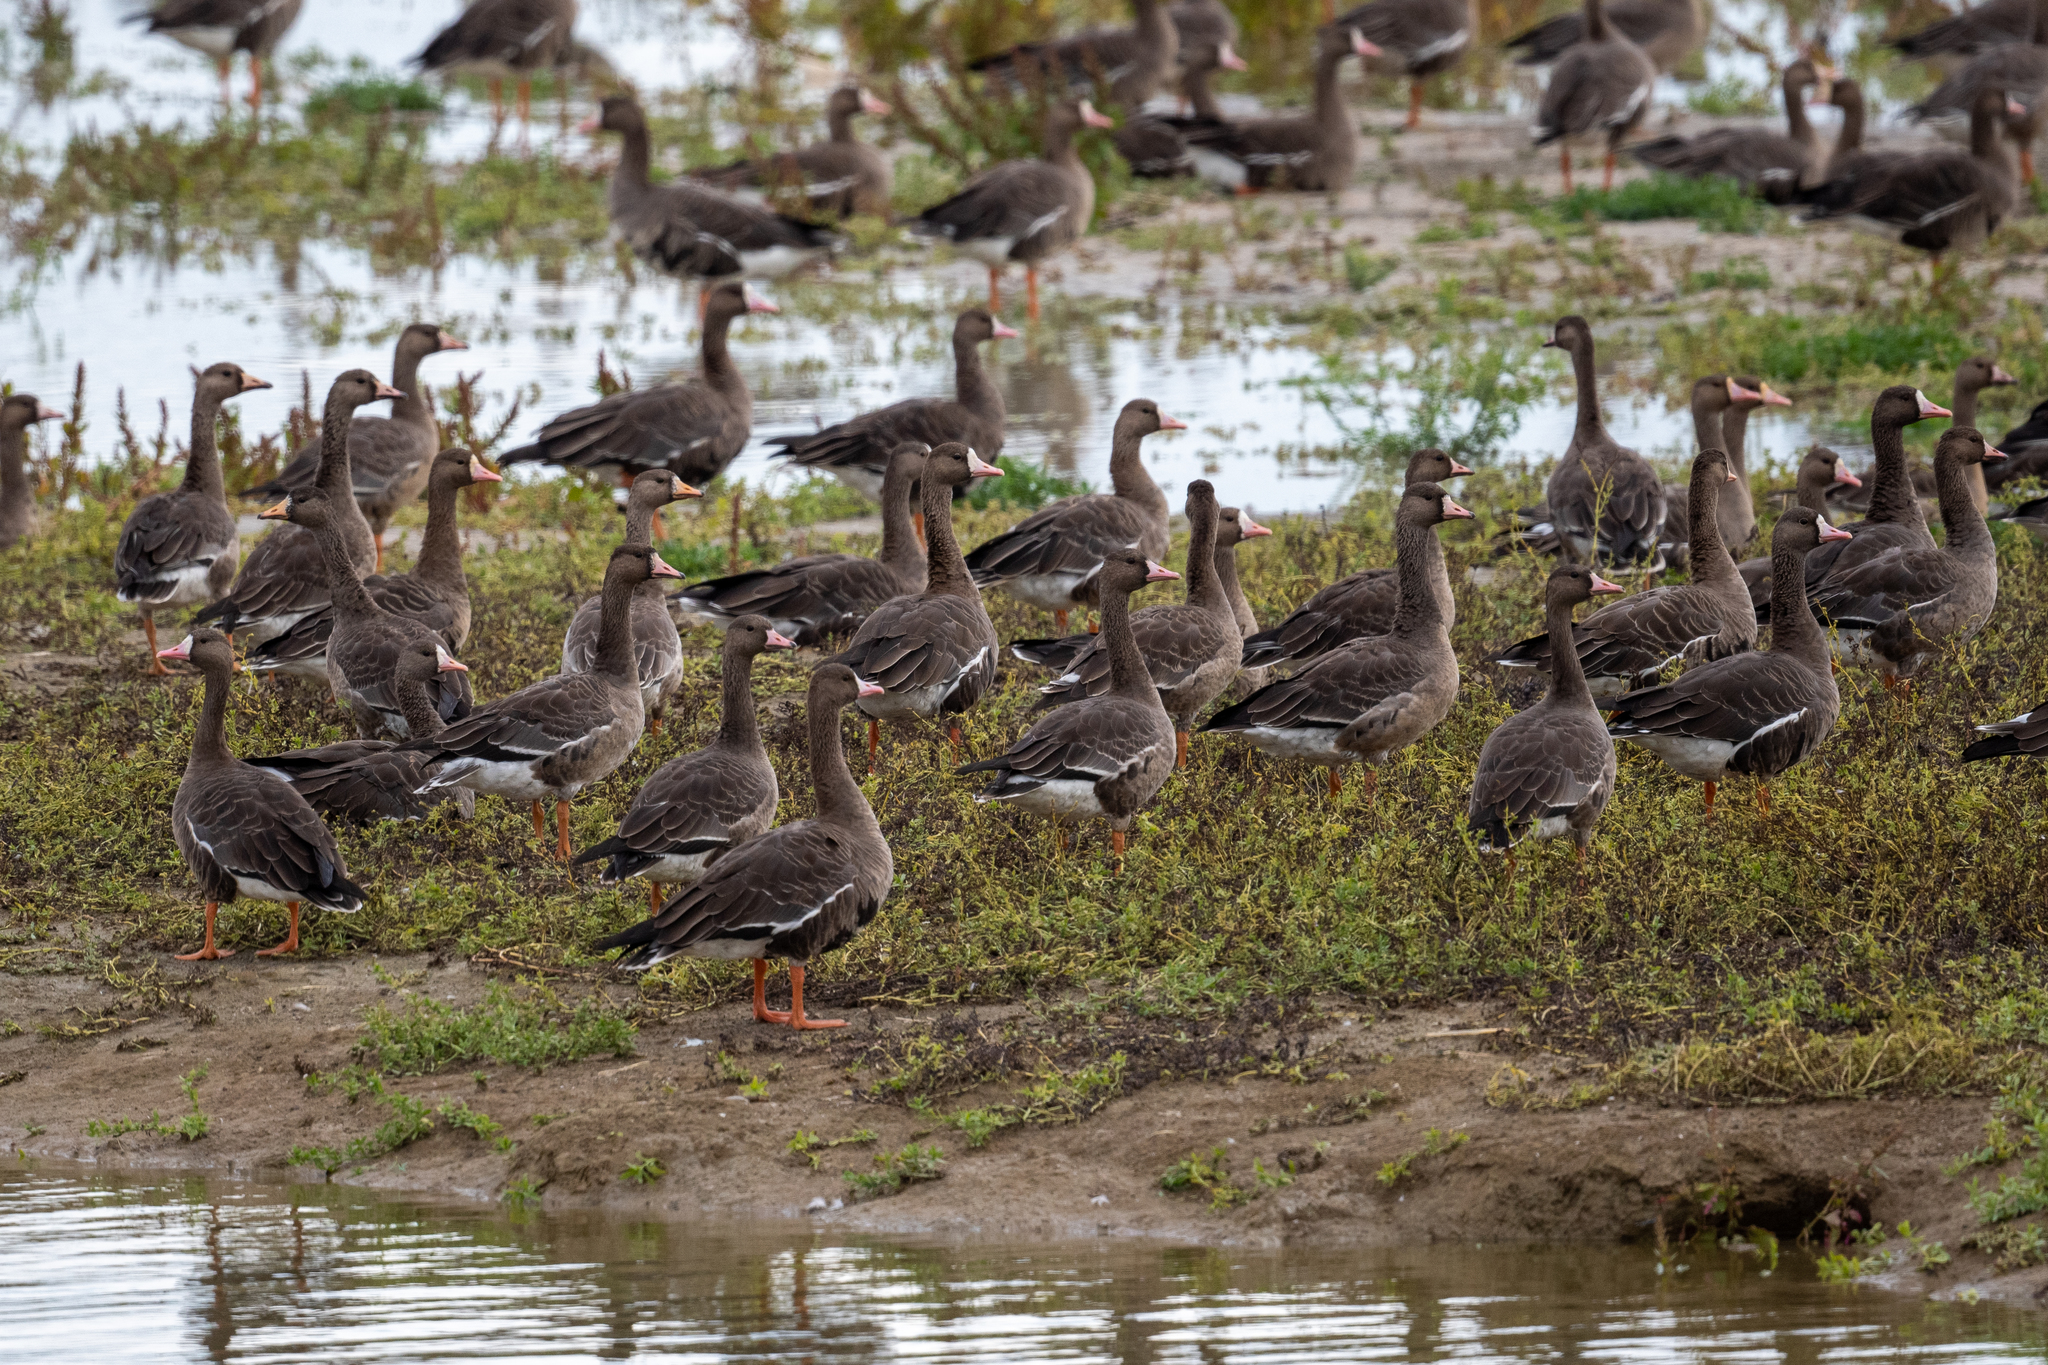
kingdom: Animalia
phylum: Chordata
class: Aves
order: Anseriformes
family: Anatidae
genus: Anser
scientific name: Anser albifrons
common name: Greater white-fronted goose
